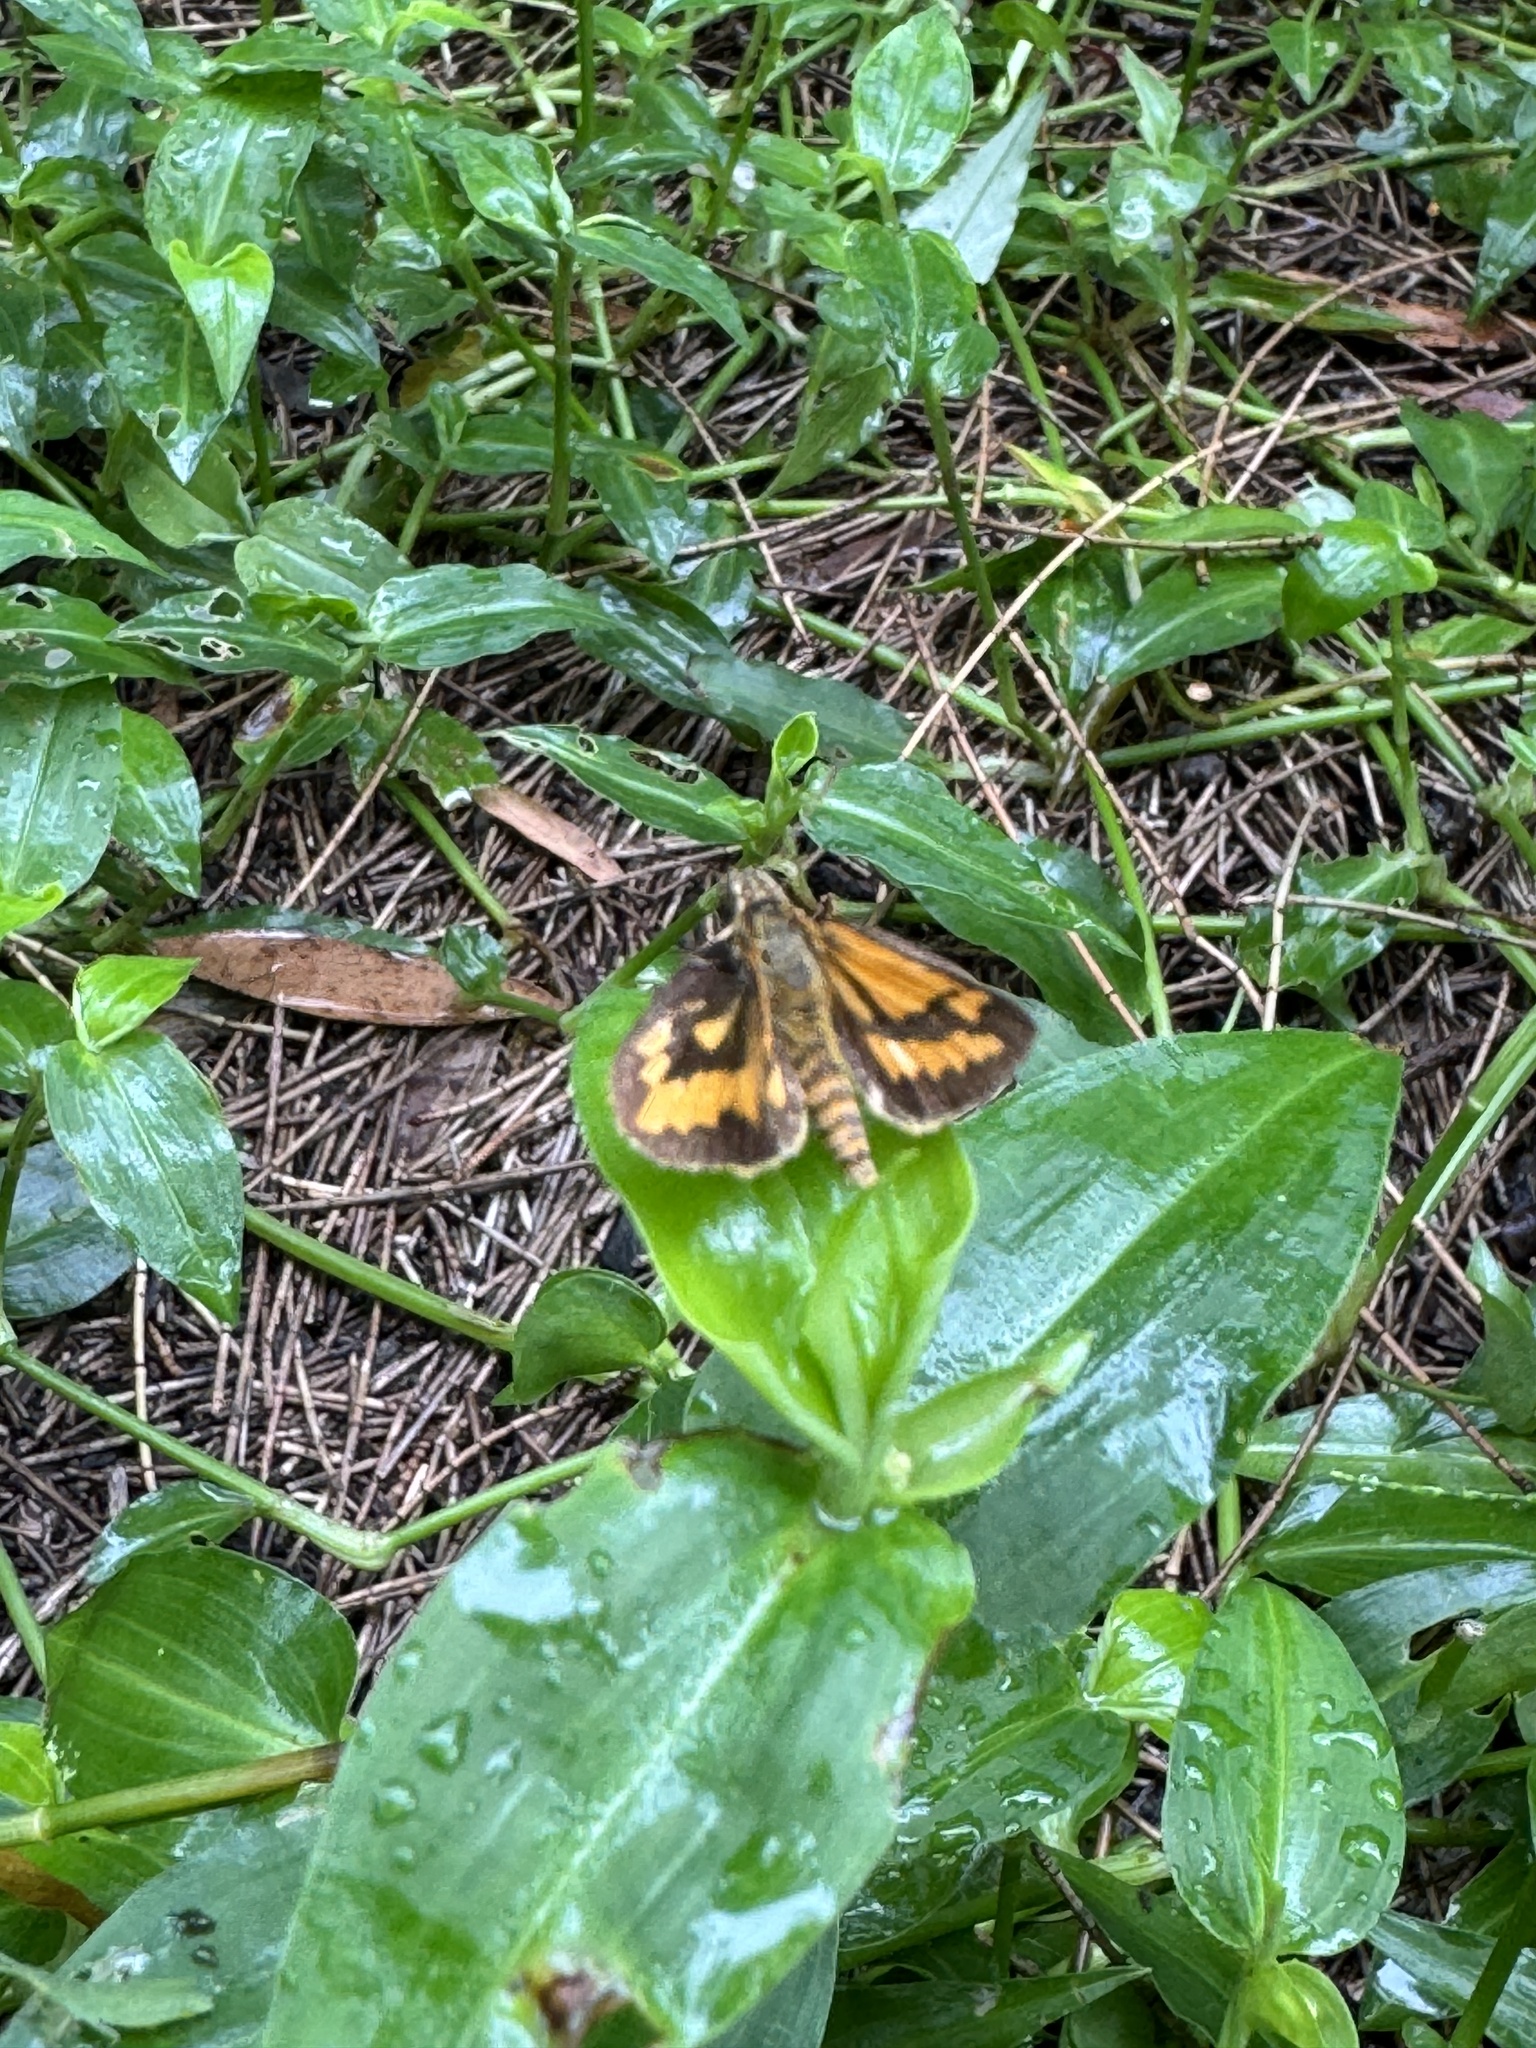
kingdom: Animalia
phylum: Arthropoda
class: Insecta
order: Lepidoptera
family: Hesperiidae
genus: Suniana
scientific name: Suniana sunias
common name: Wide-brand grass-dart
